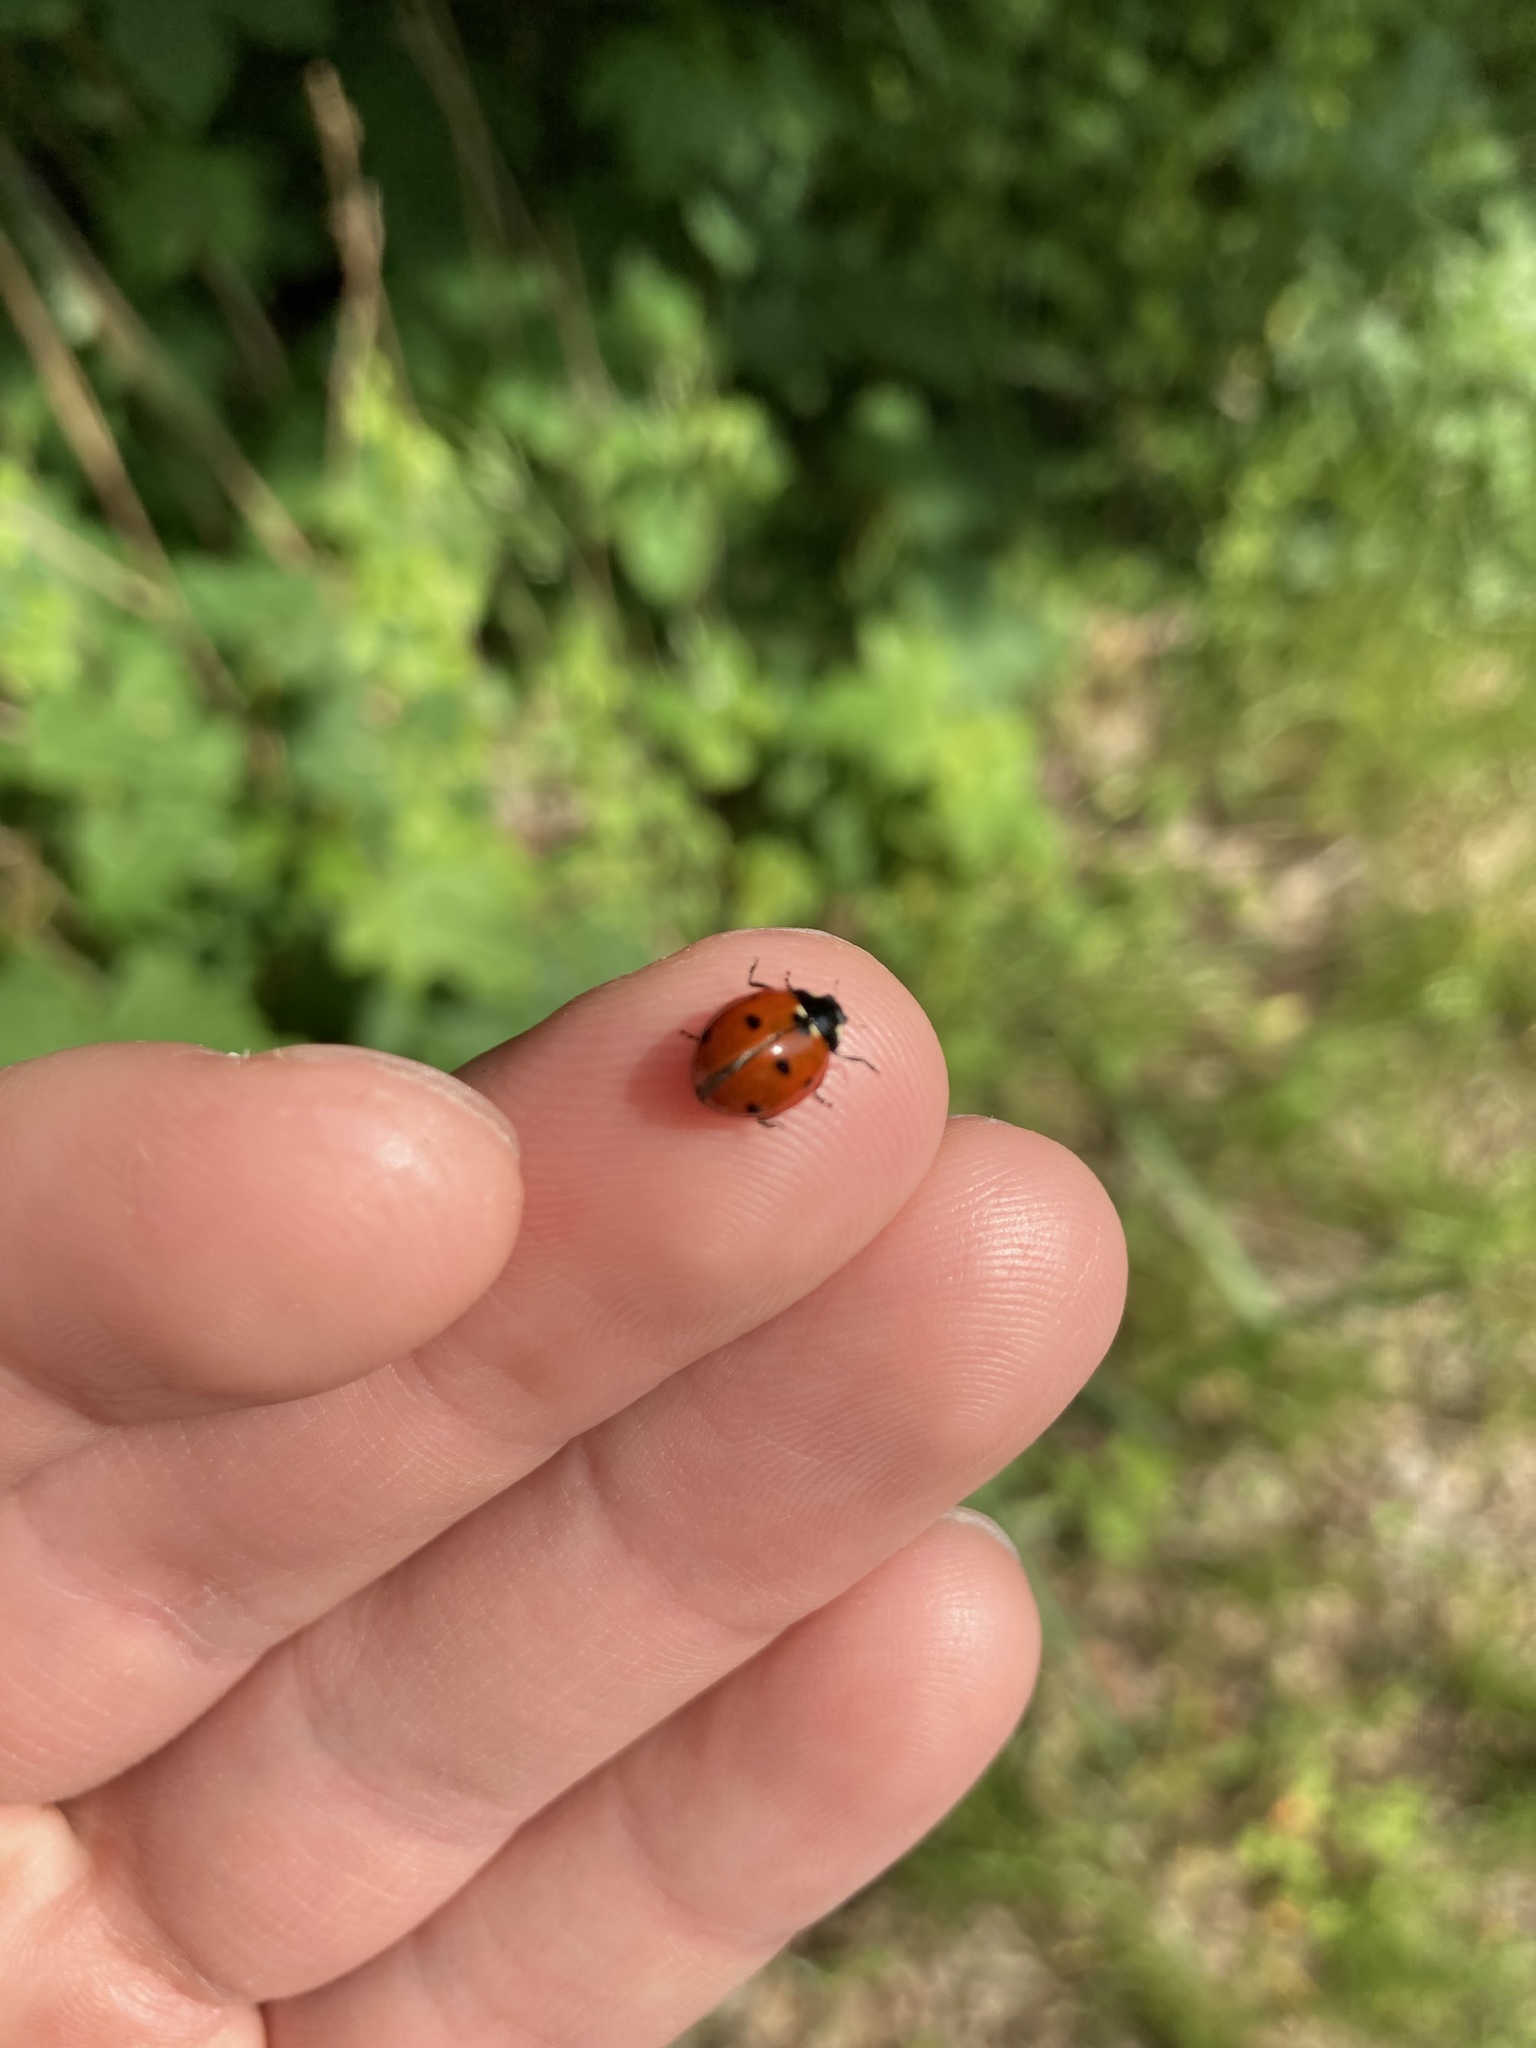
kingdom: Animalia
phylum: Arthropoda
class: Insecta
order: Coleoptera
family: Coccinellidae
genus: Coccinella
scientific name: Coccinella septempunctata
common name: Sevenspotted lady beetle
